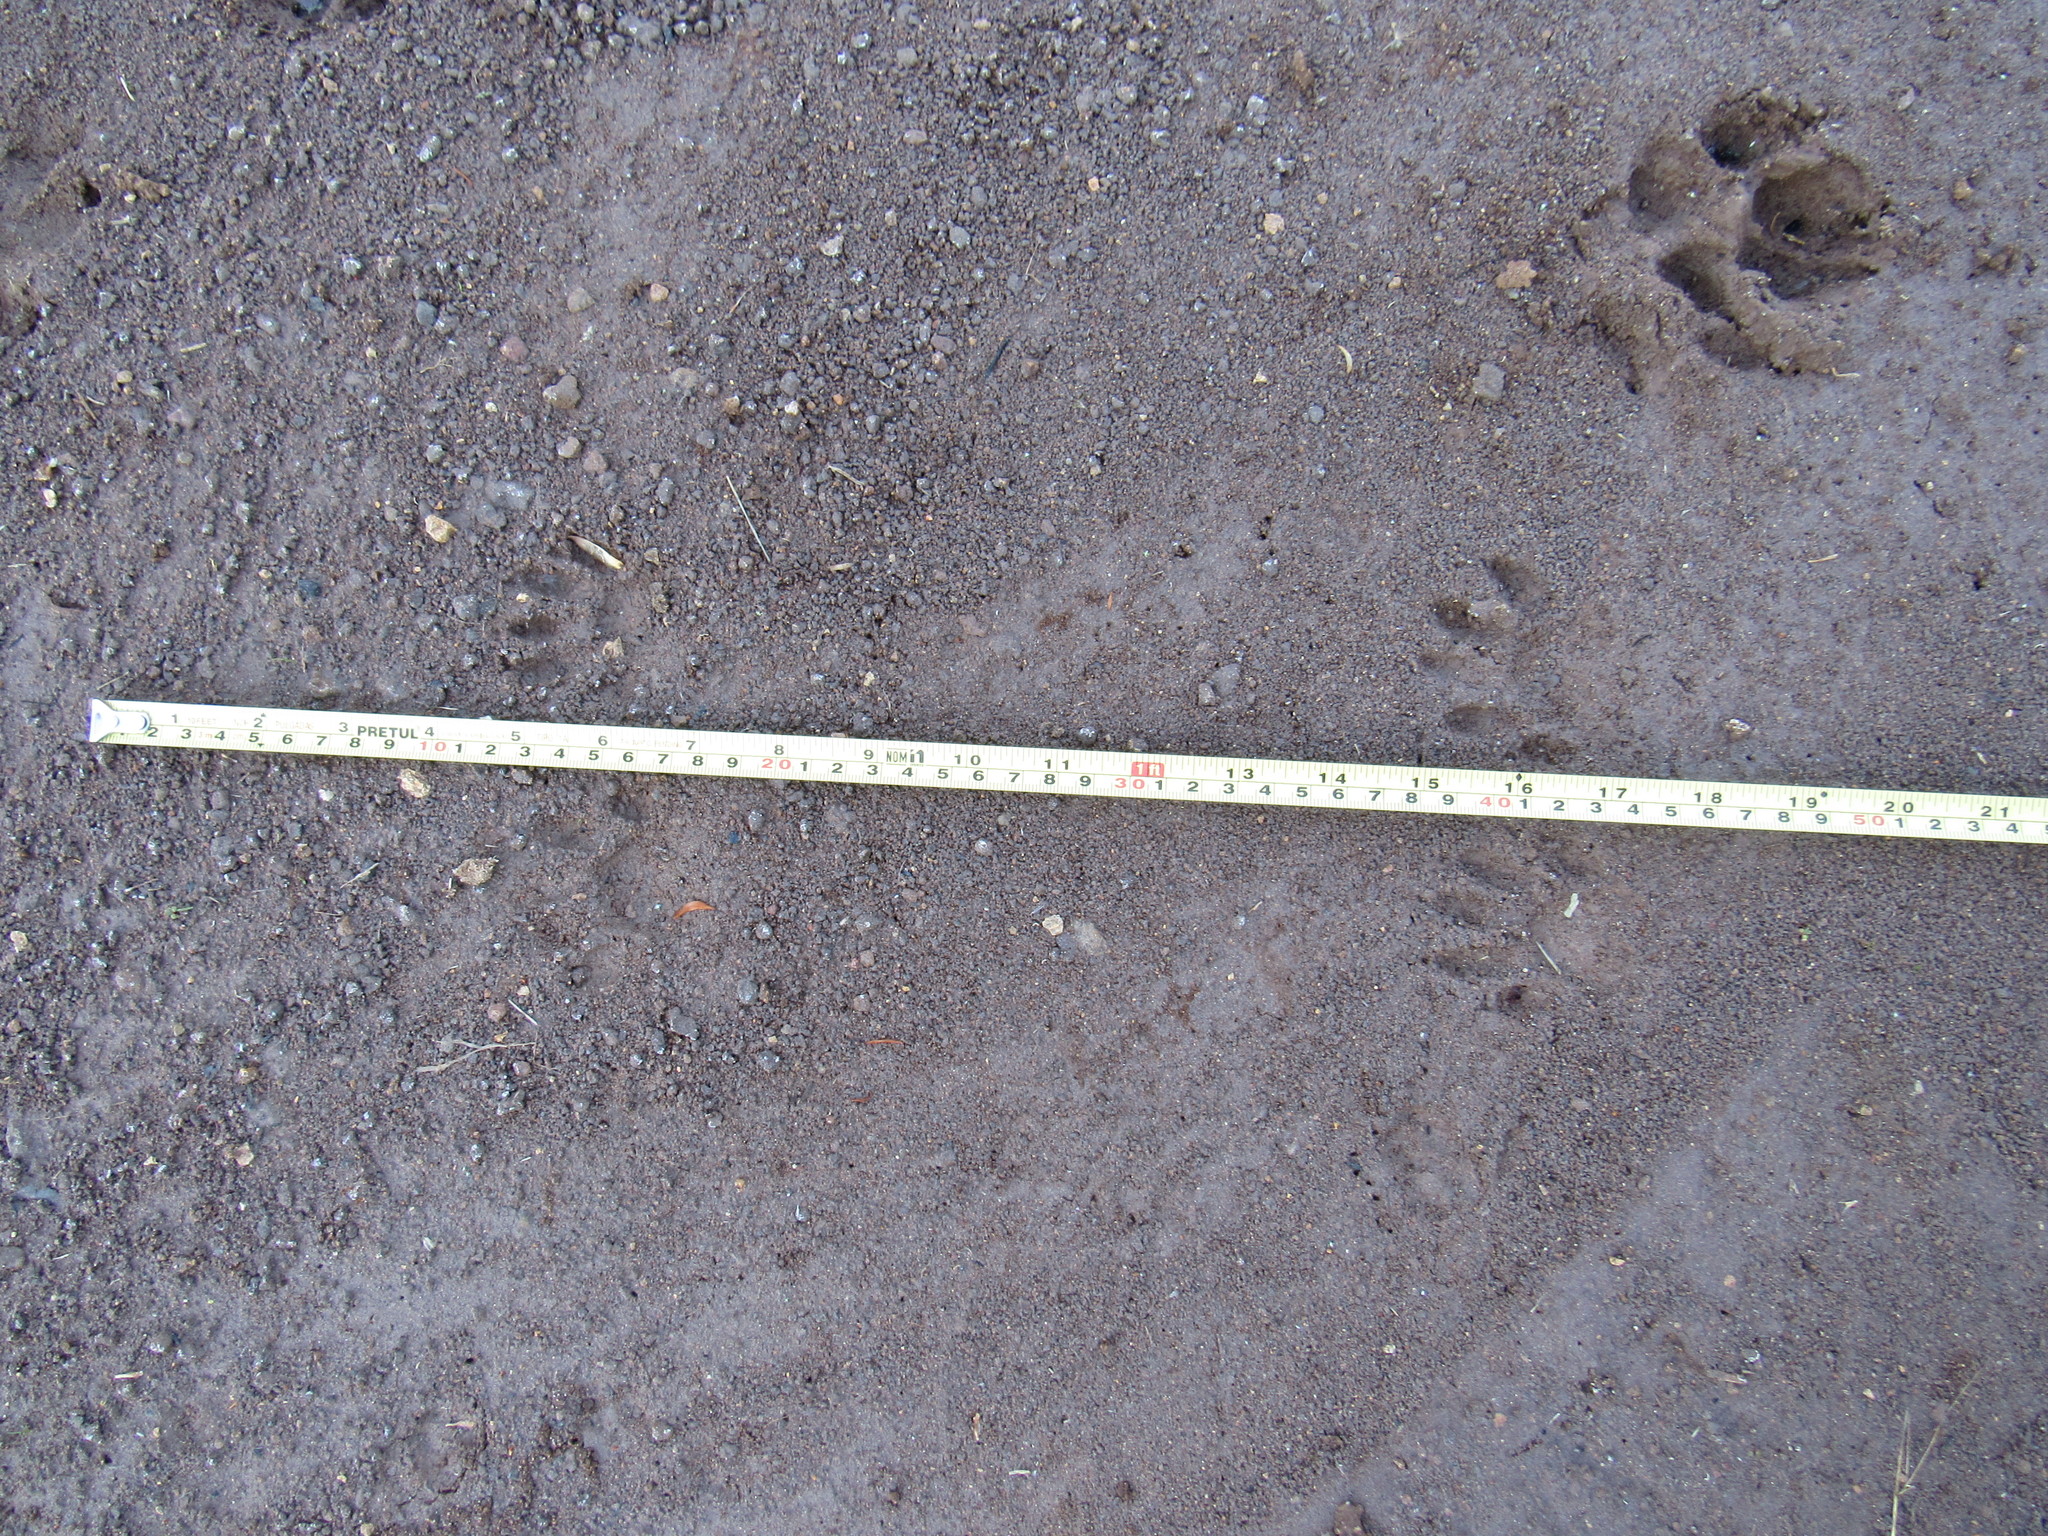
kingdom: Animalia
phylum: Chordata
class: Mammalia
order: Carnivora
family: Procyonidae
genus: Procyon
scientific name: Procyon lotor
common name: Raccoon
